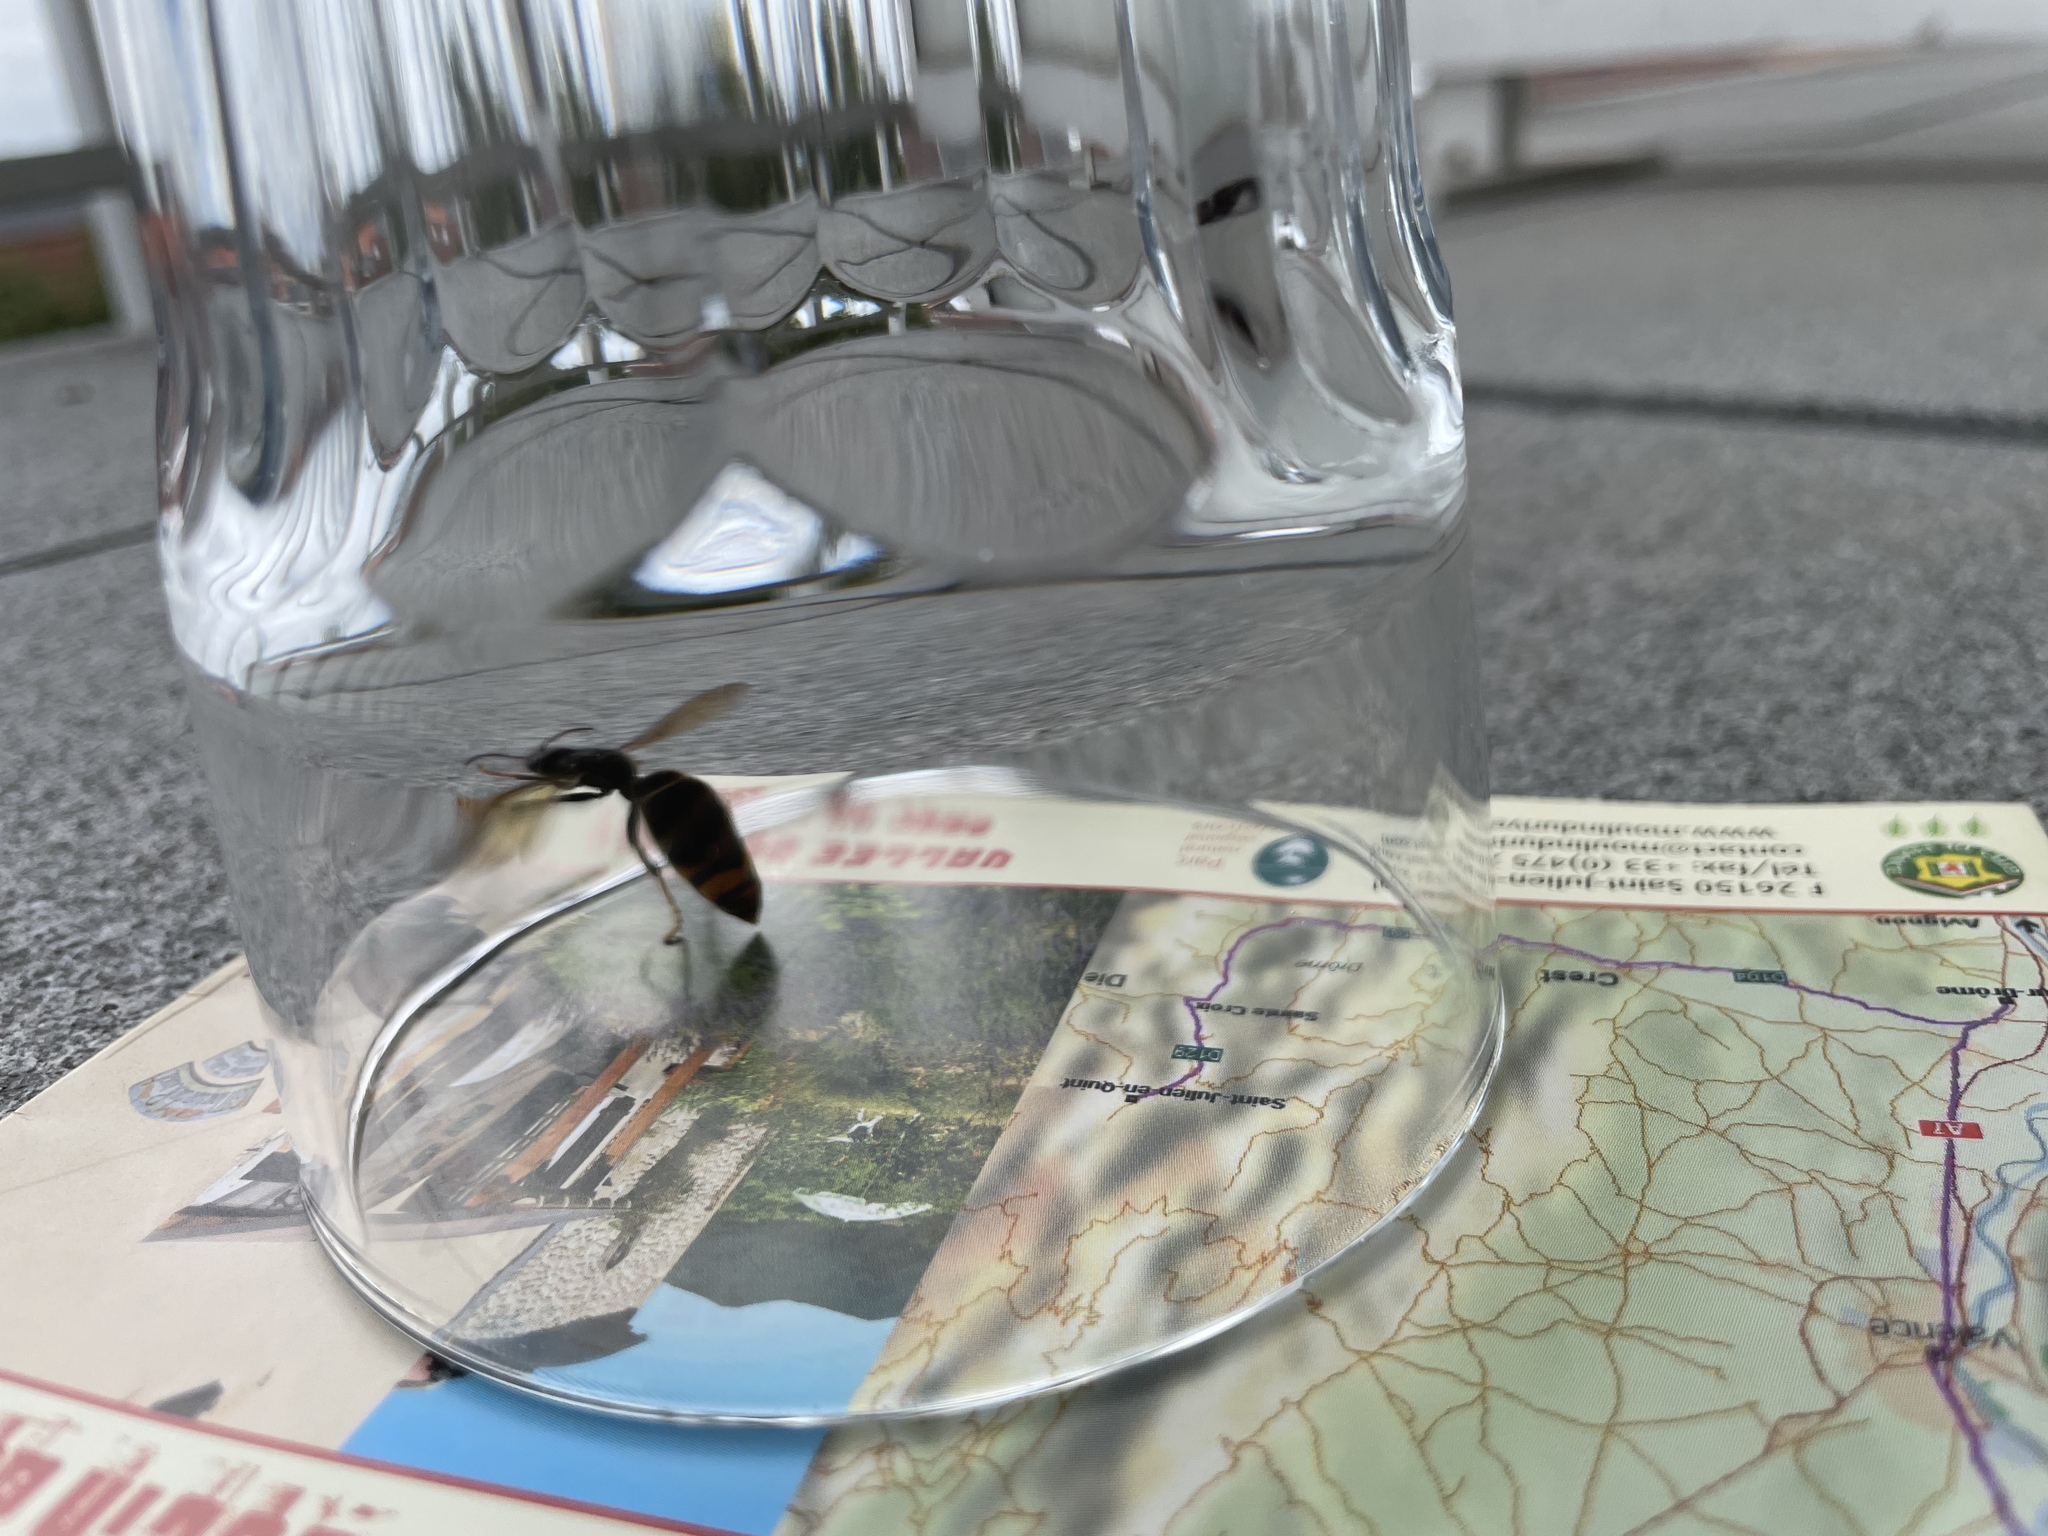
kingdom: Animalia
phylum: Arthropoda
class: Insecta
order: Hymenoptera
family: Vespidae
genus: Vespa
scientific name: Vespa velutina
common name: Asian hornet
